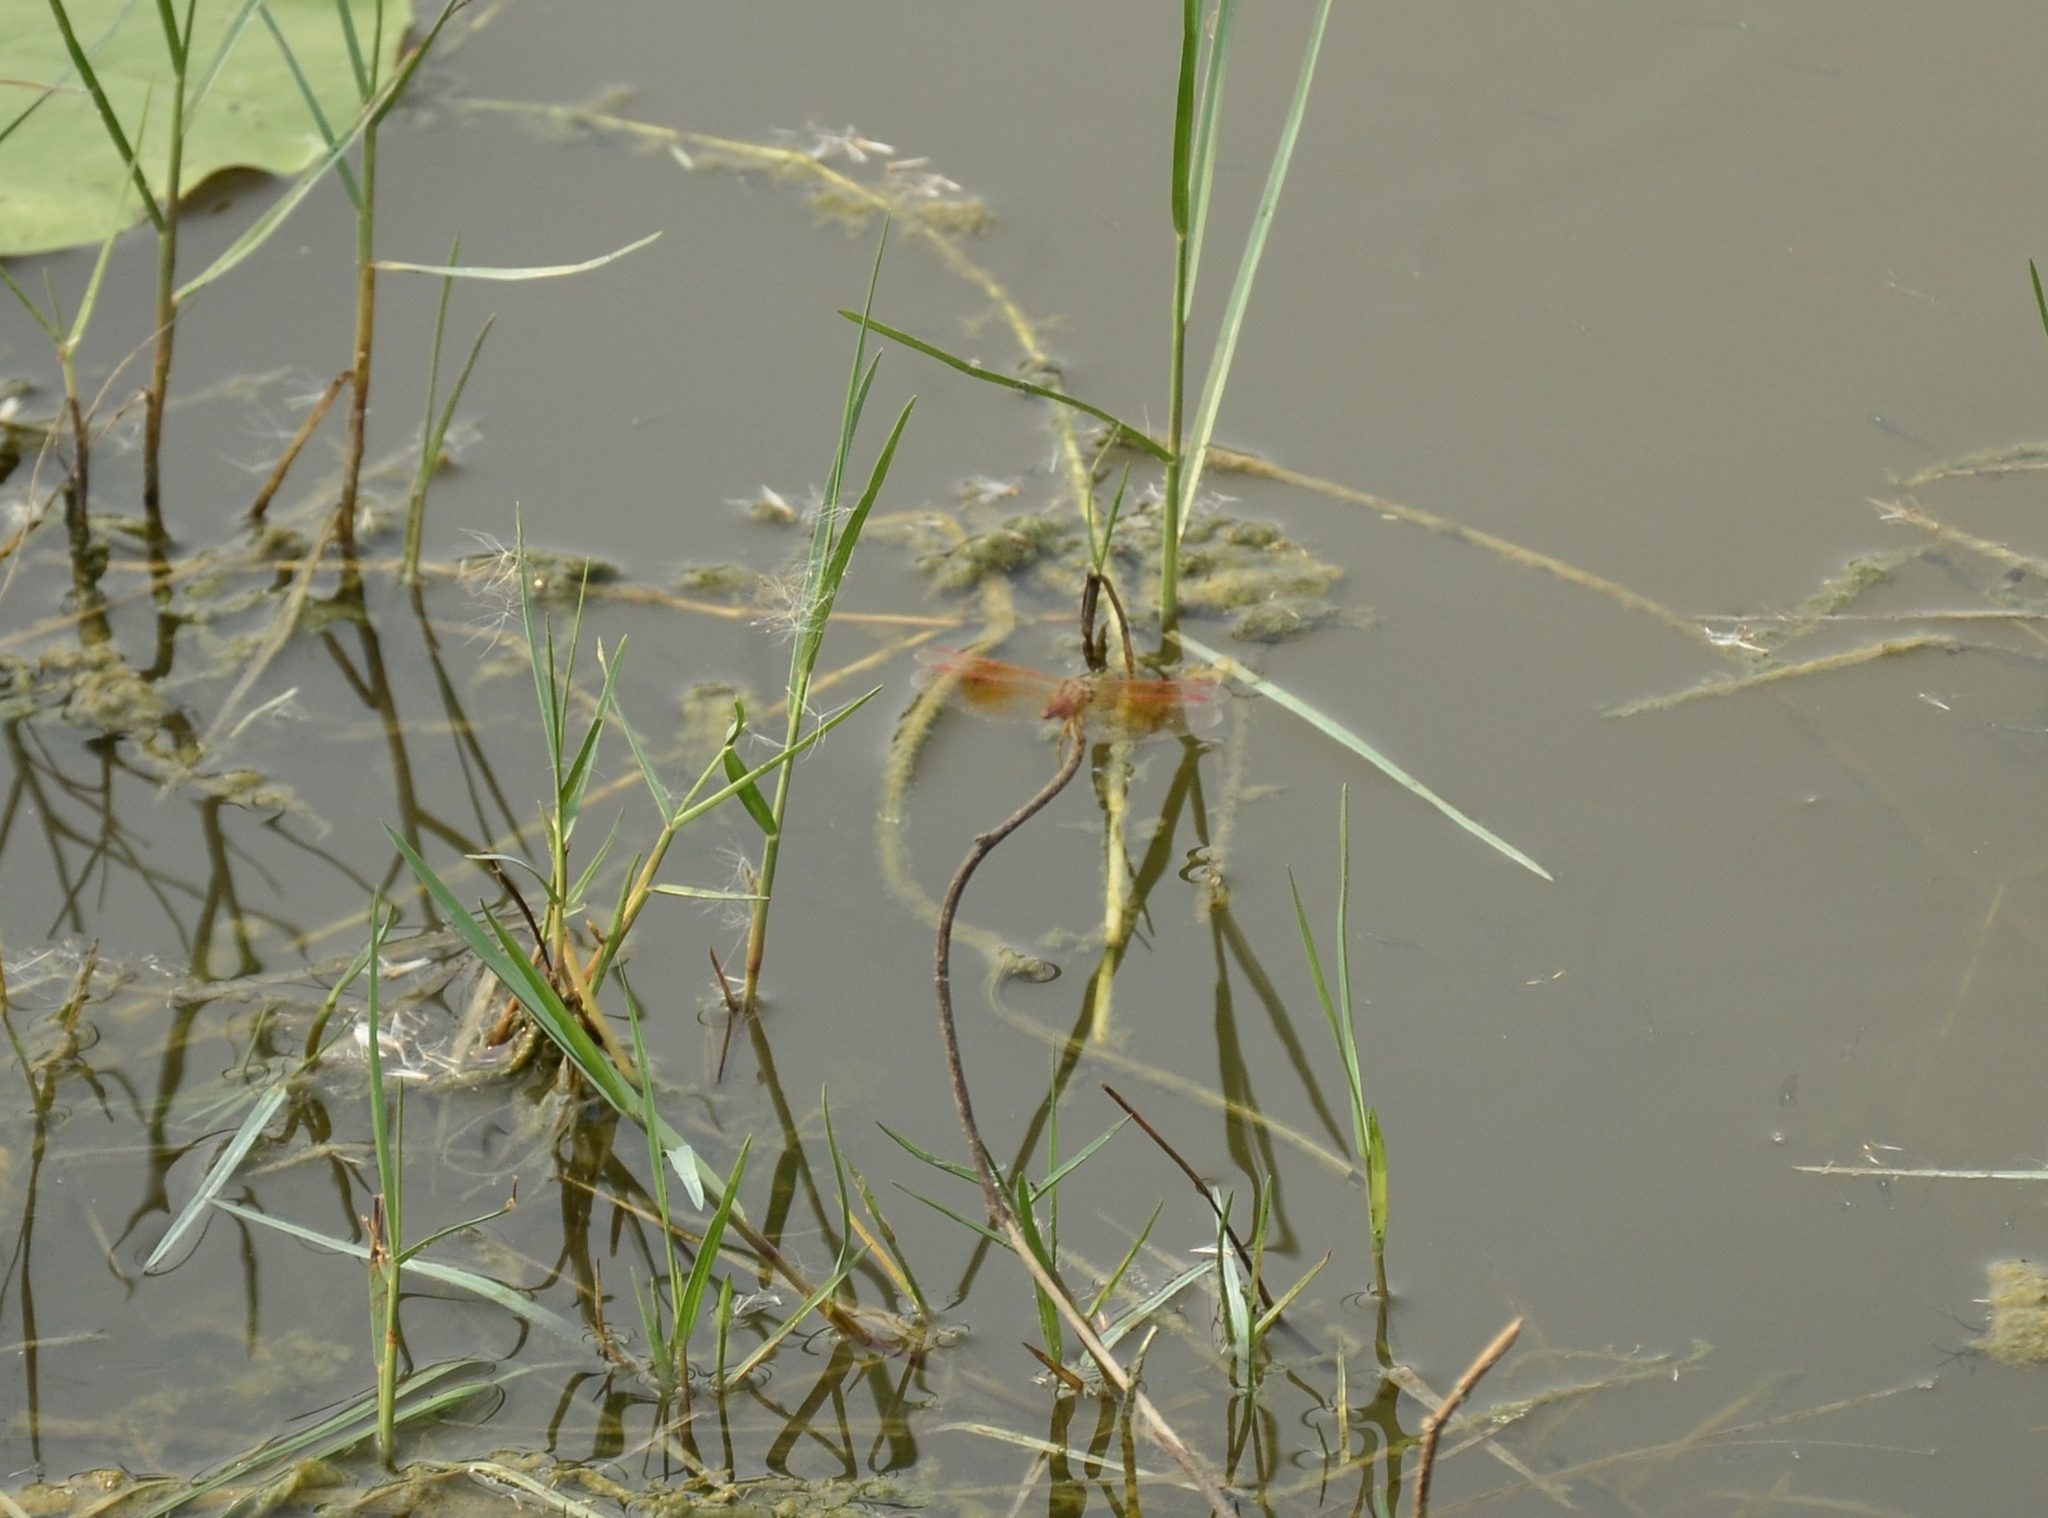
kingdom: Animalia
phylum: Arthropoda
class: Insecta
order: Odonata
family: Libellulidae
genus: Brachythemis
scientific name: Brachythemis contaminata
